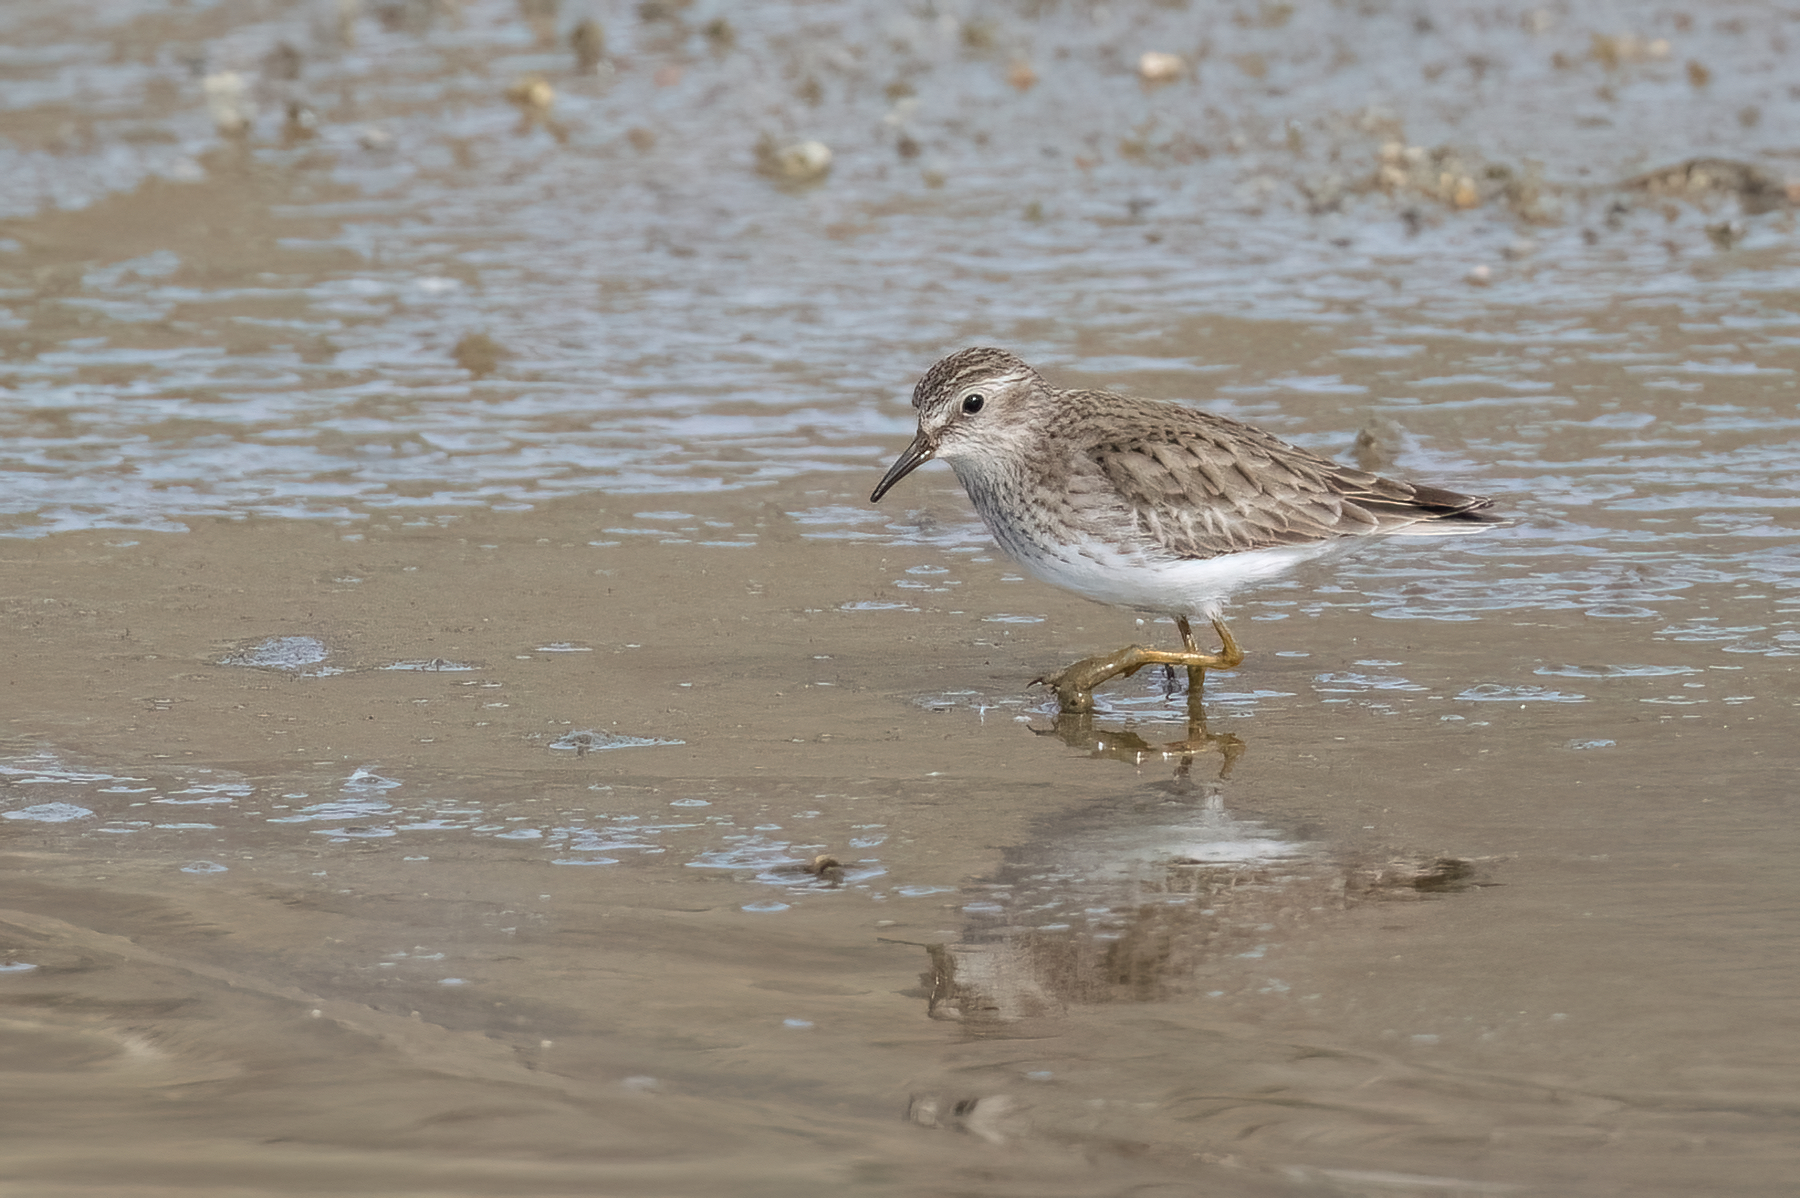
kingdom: Animalia
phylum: Chordata
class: Aves
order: Charadriiformes
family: Scolopacidae
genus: Calidris
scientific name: Calidris minutilla
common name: Least sandpiper
